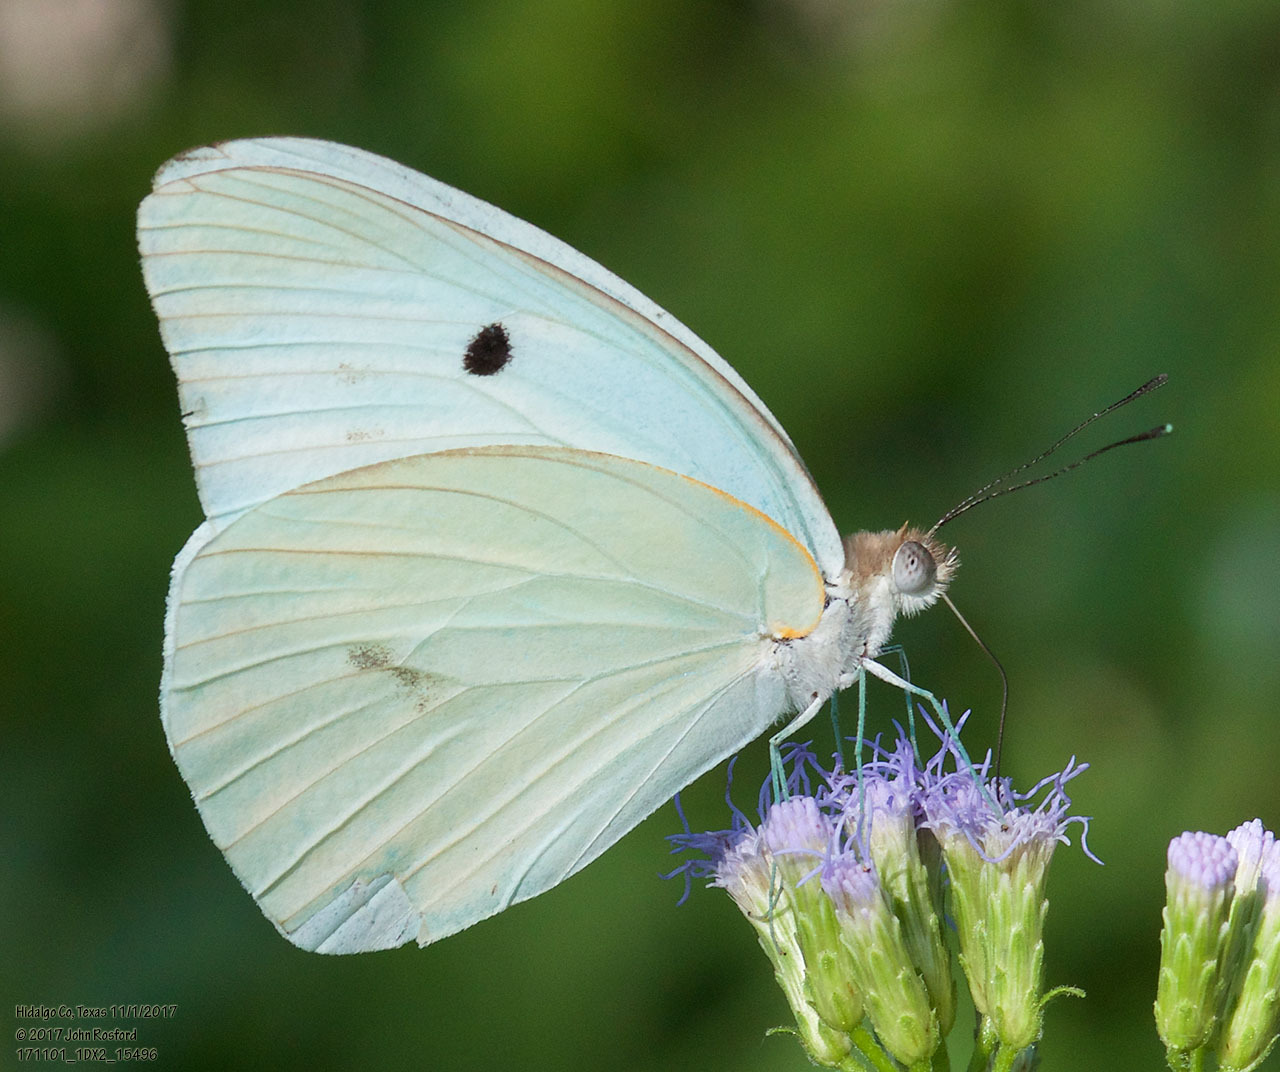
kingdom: Animalia
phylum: Arthropoda
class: Insecta
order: Lepidoptera
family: Pieridae
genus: Ganyra
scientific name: Ganyra josephina
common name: Giant white
